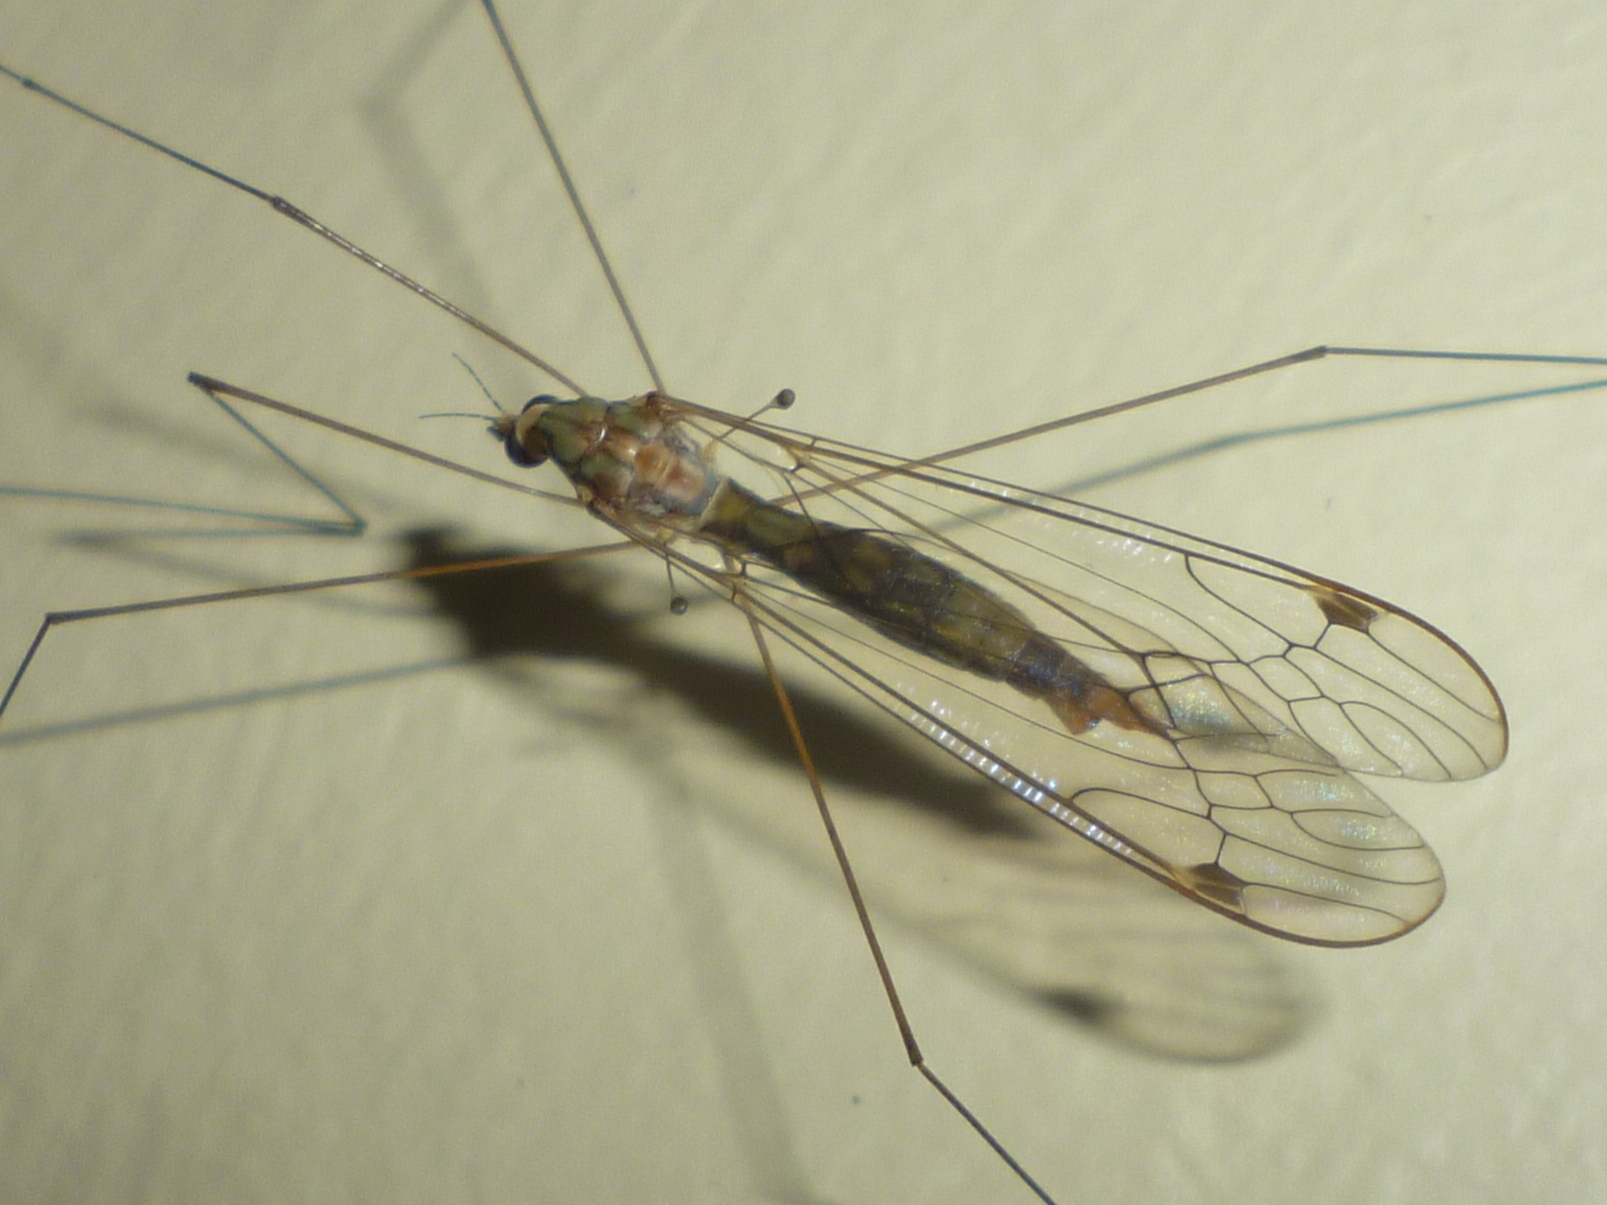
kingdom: Animalia
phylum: Arthropoda
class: Insecta
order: Diptera
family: Tipulidae
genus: Maekistocera
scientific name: Maekistocera longipennis
